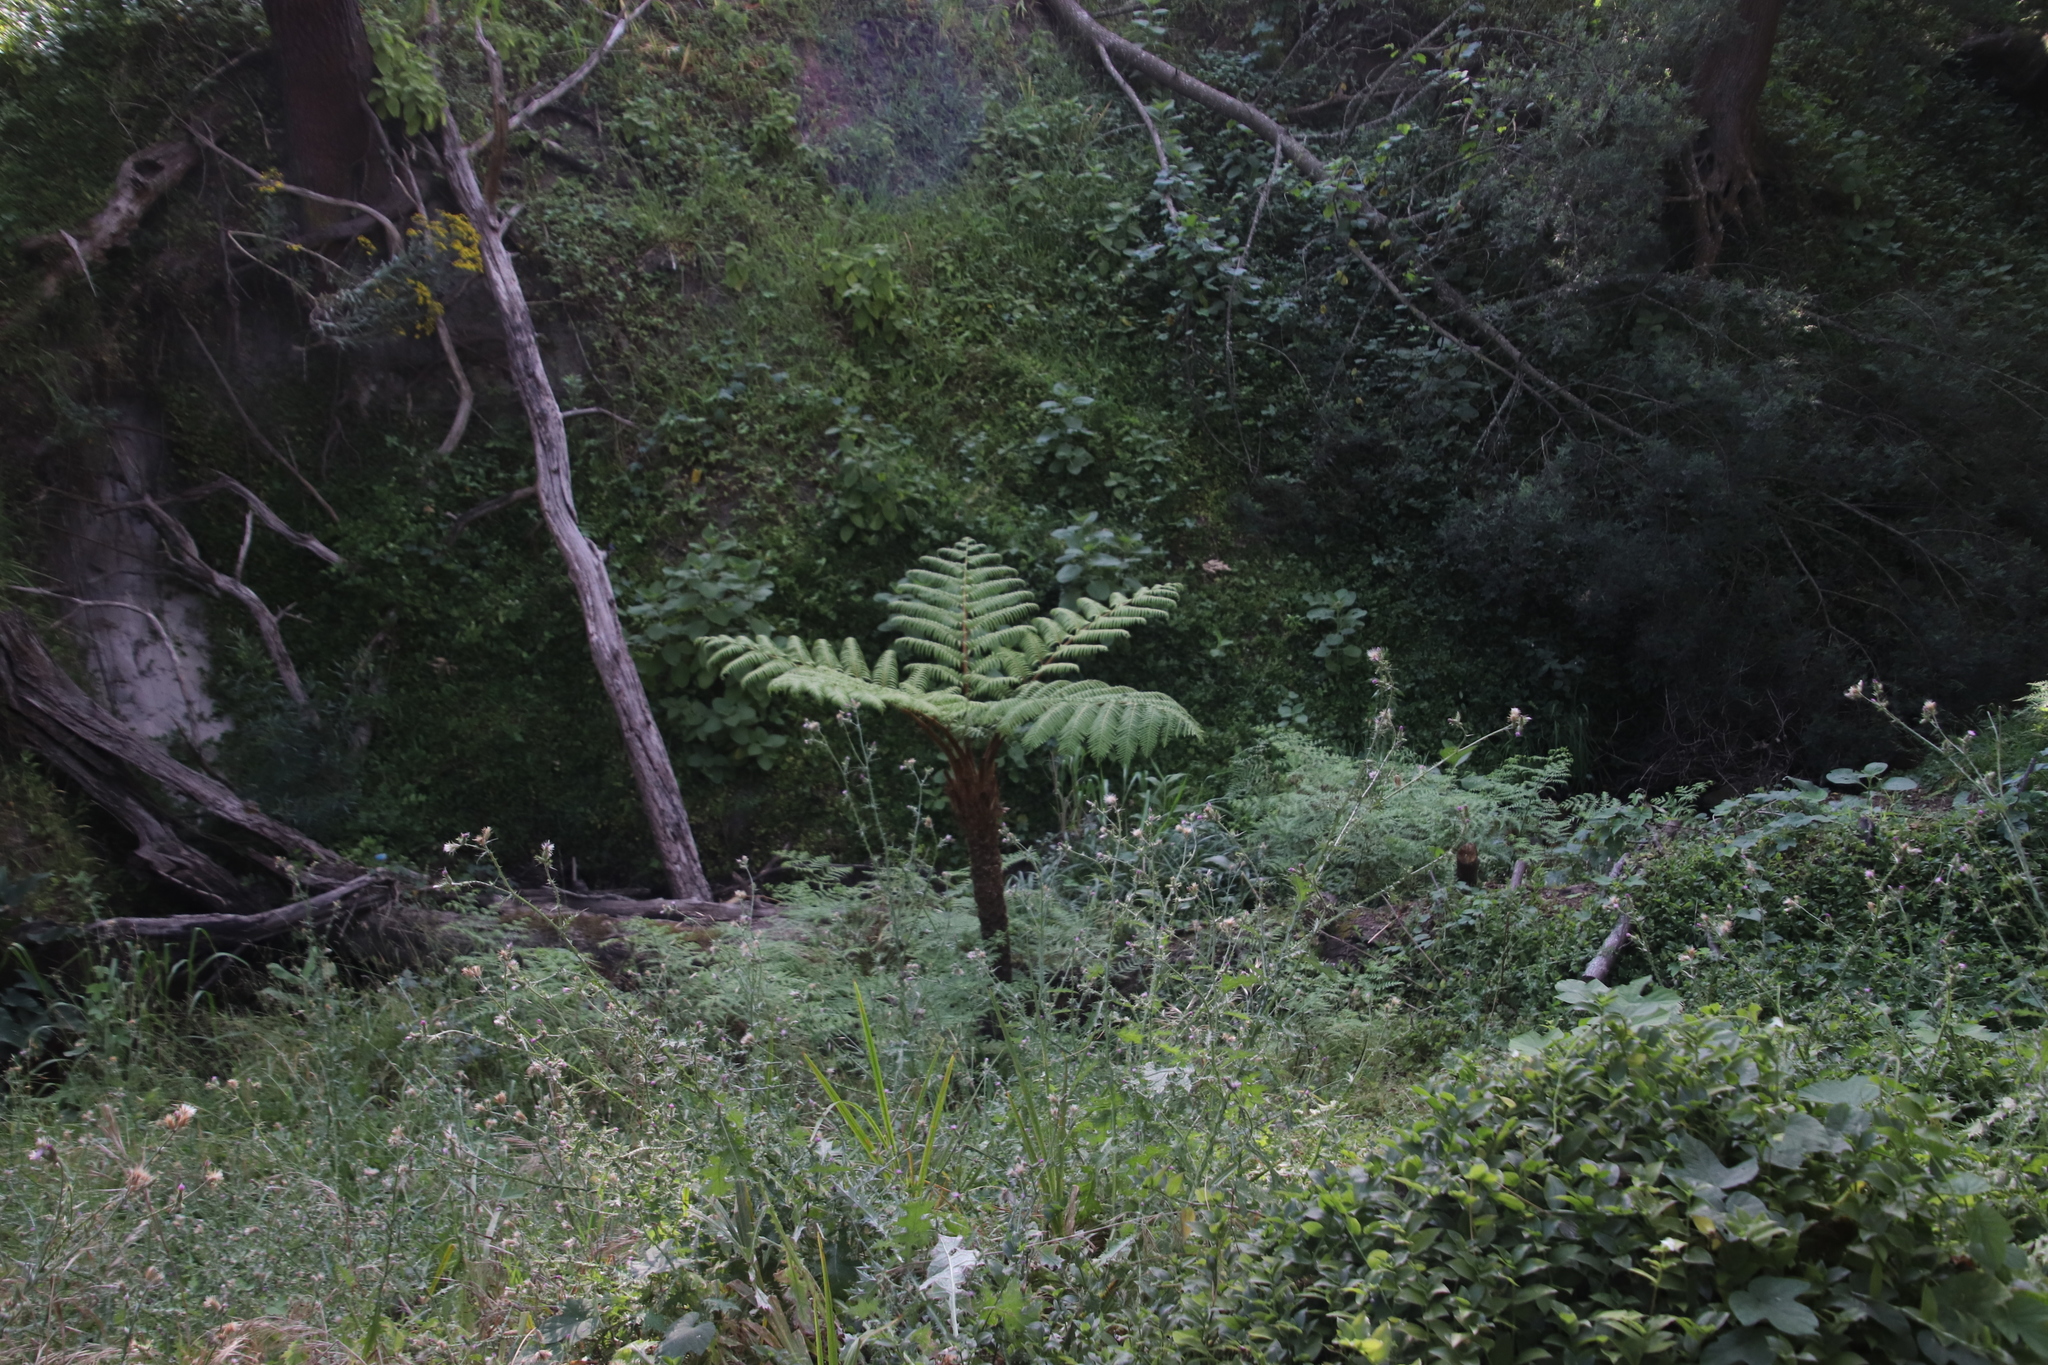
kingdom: Plantae
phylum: Tracheophyta
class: Polypodiopsida
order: Cyatheales
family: Cyatheaceae
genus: Sphaeropteris
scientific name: Sphaeropteris cooperi
